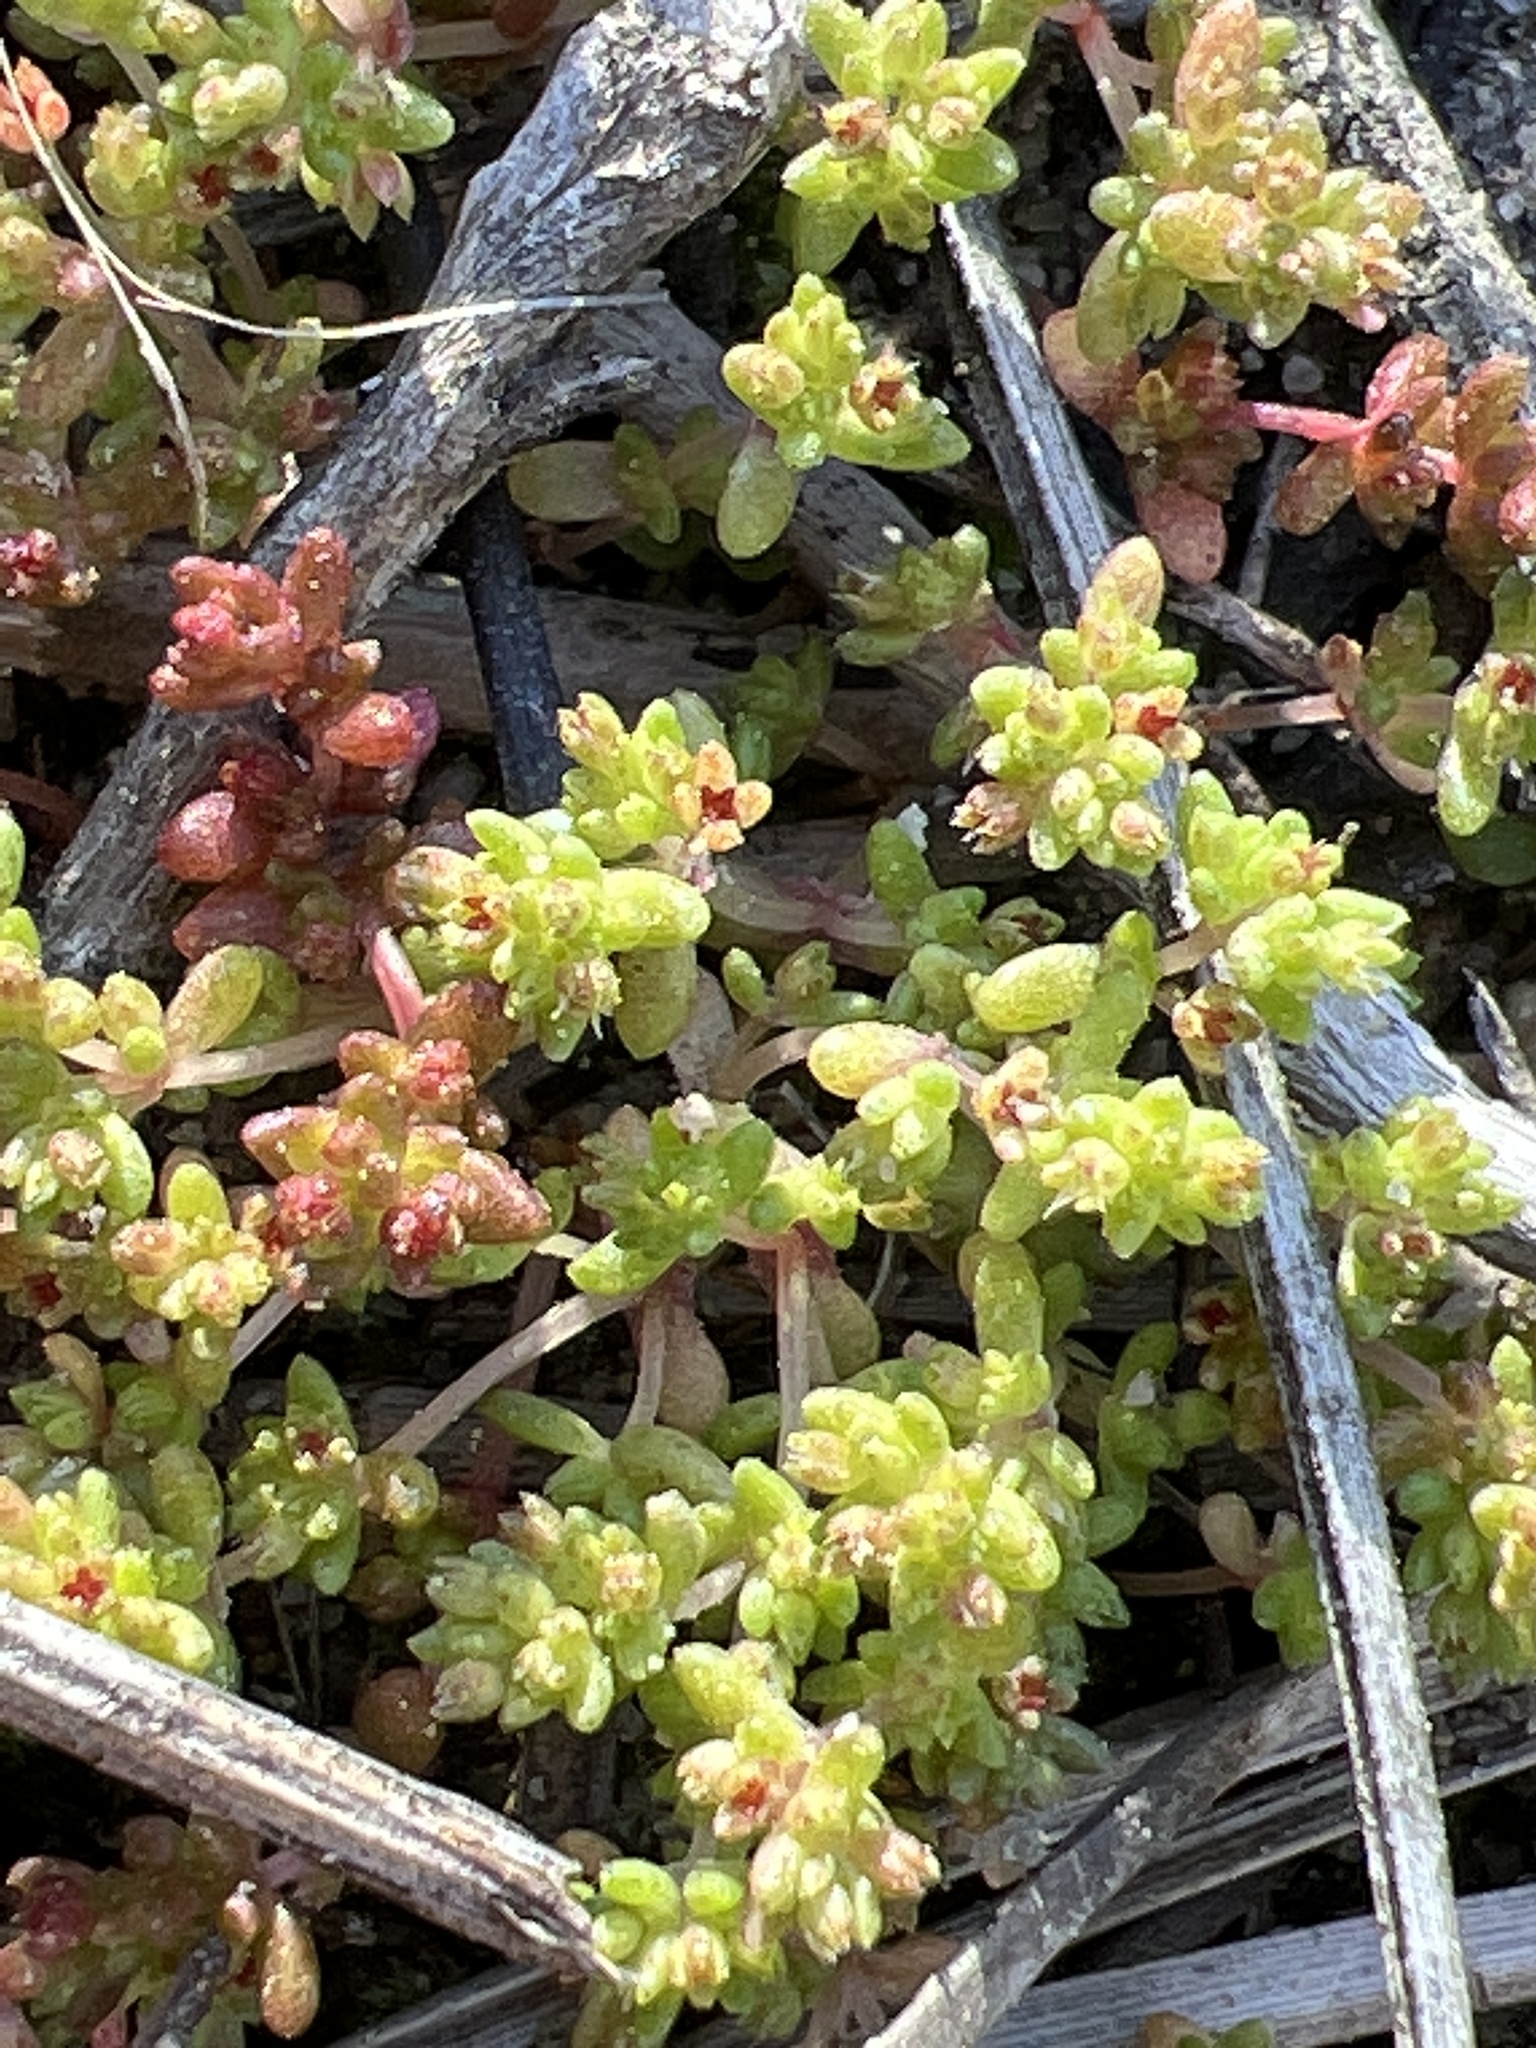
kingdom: Plantae
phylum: Tracheophyta
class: Magnoliopsida
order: Saxifragales
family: Crassulaceae
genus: Crassula
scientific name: Crassula connata
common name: Erect pygmyweed
